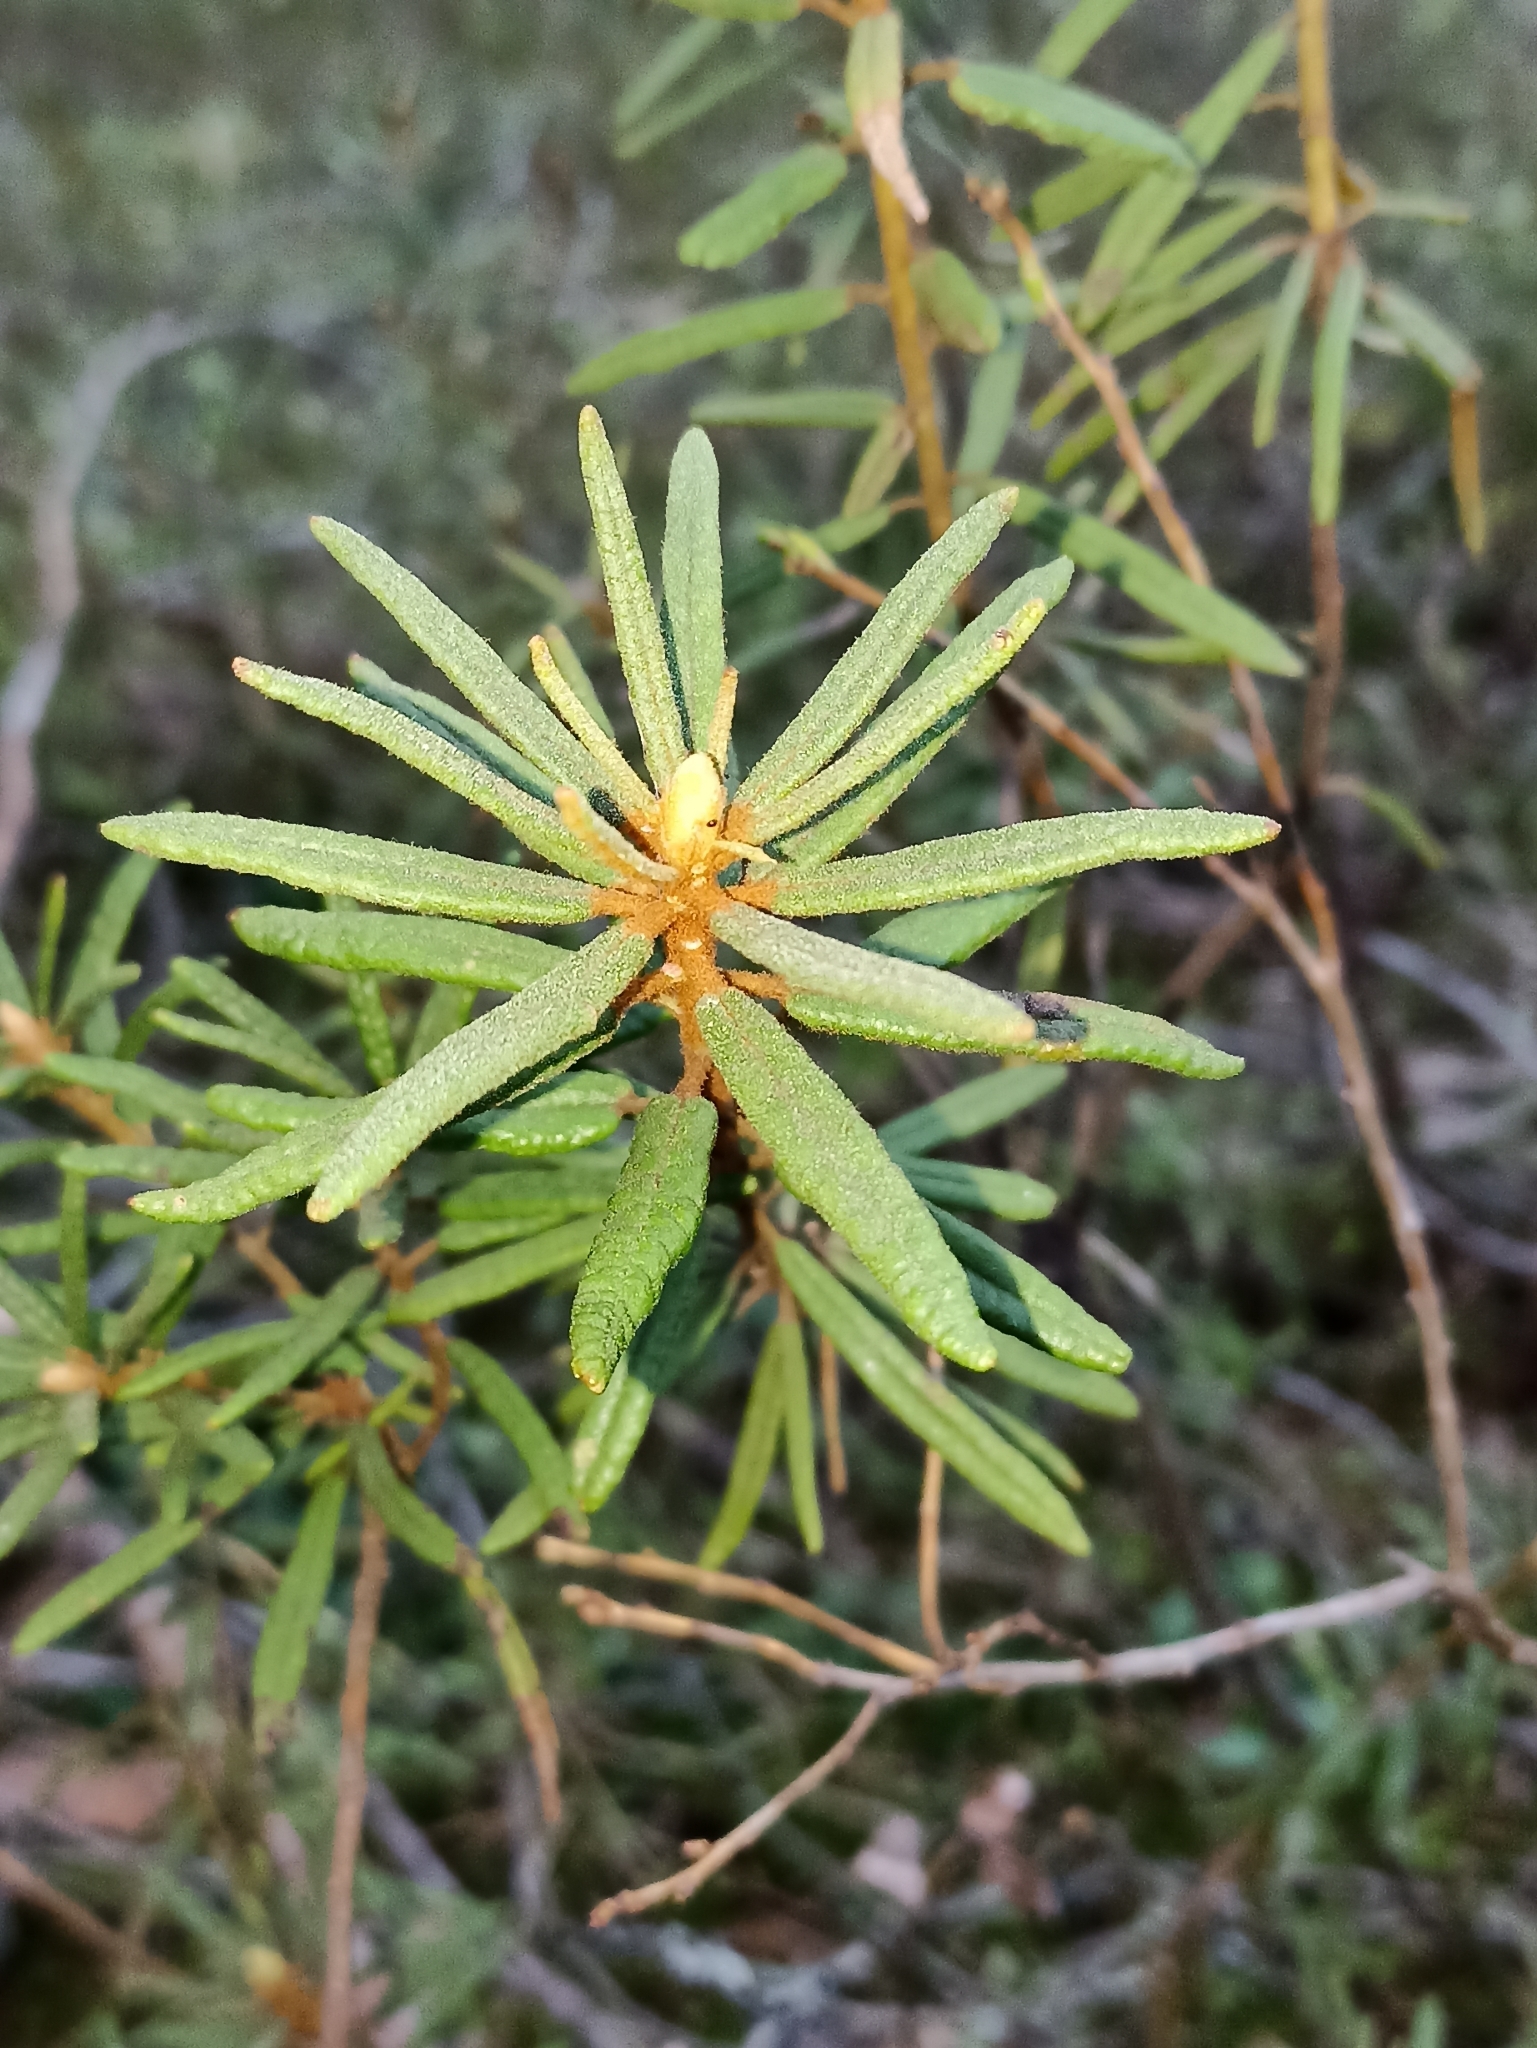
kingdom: Plantae
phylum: Tracheophyta
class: Magnoliopsida
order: Ericales
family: Ericaceae
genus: Rhododendron
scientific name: Rhododendron tomentosum
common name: Marsh labrador tea
